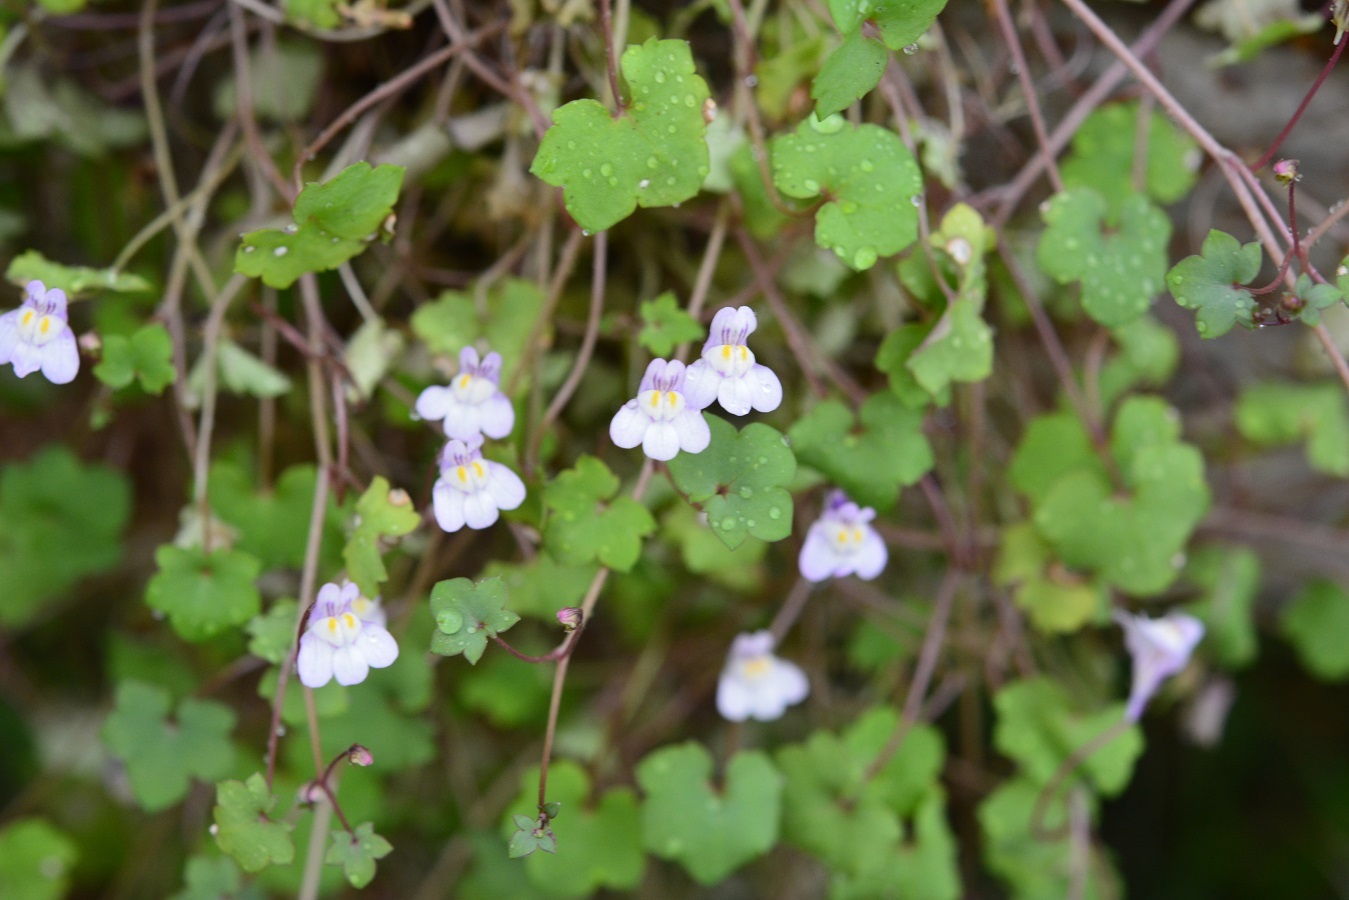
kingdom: Plantae
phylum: Tracheophyta
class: Magnoliopsida
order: Lamiales
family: Plantaginaceae
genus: Cymbalaria
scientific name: Cymbalaria muralis
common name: Ivy-leaved toadflax
